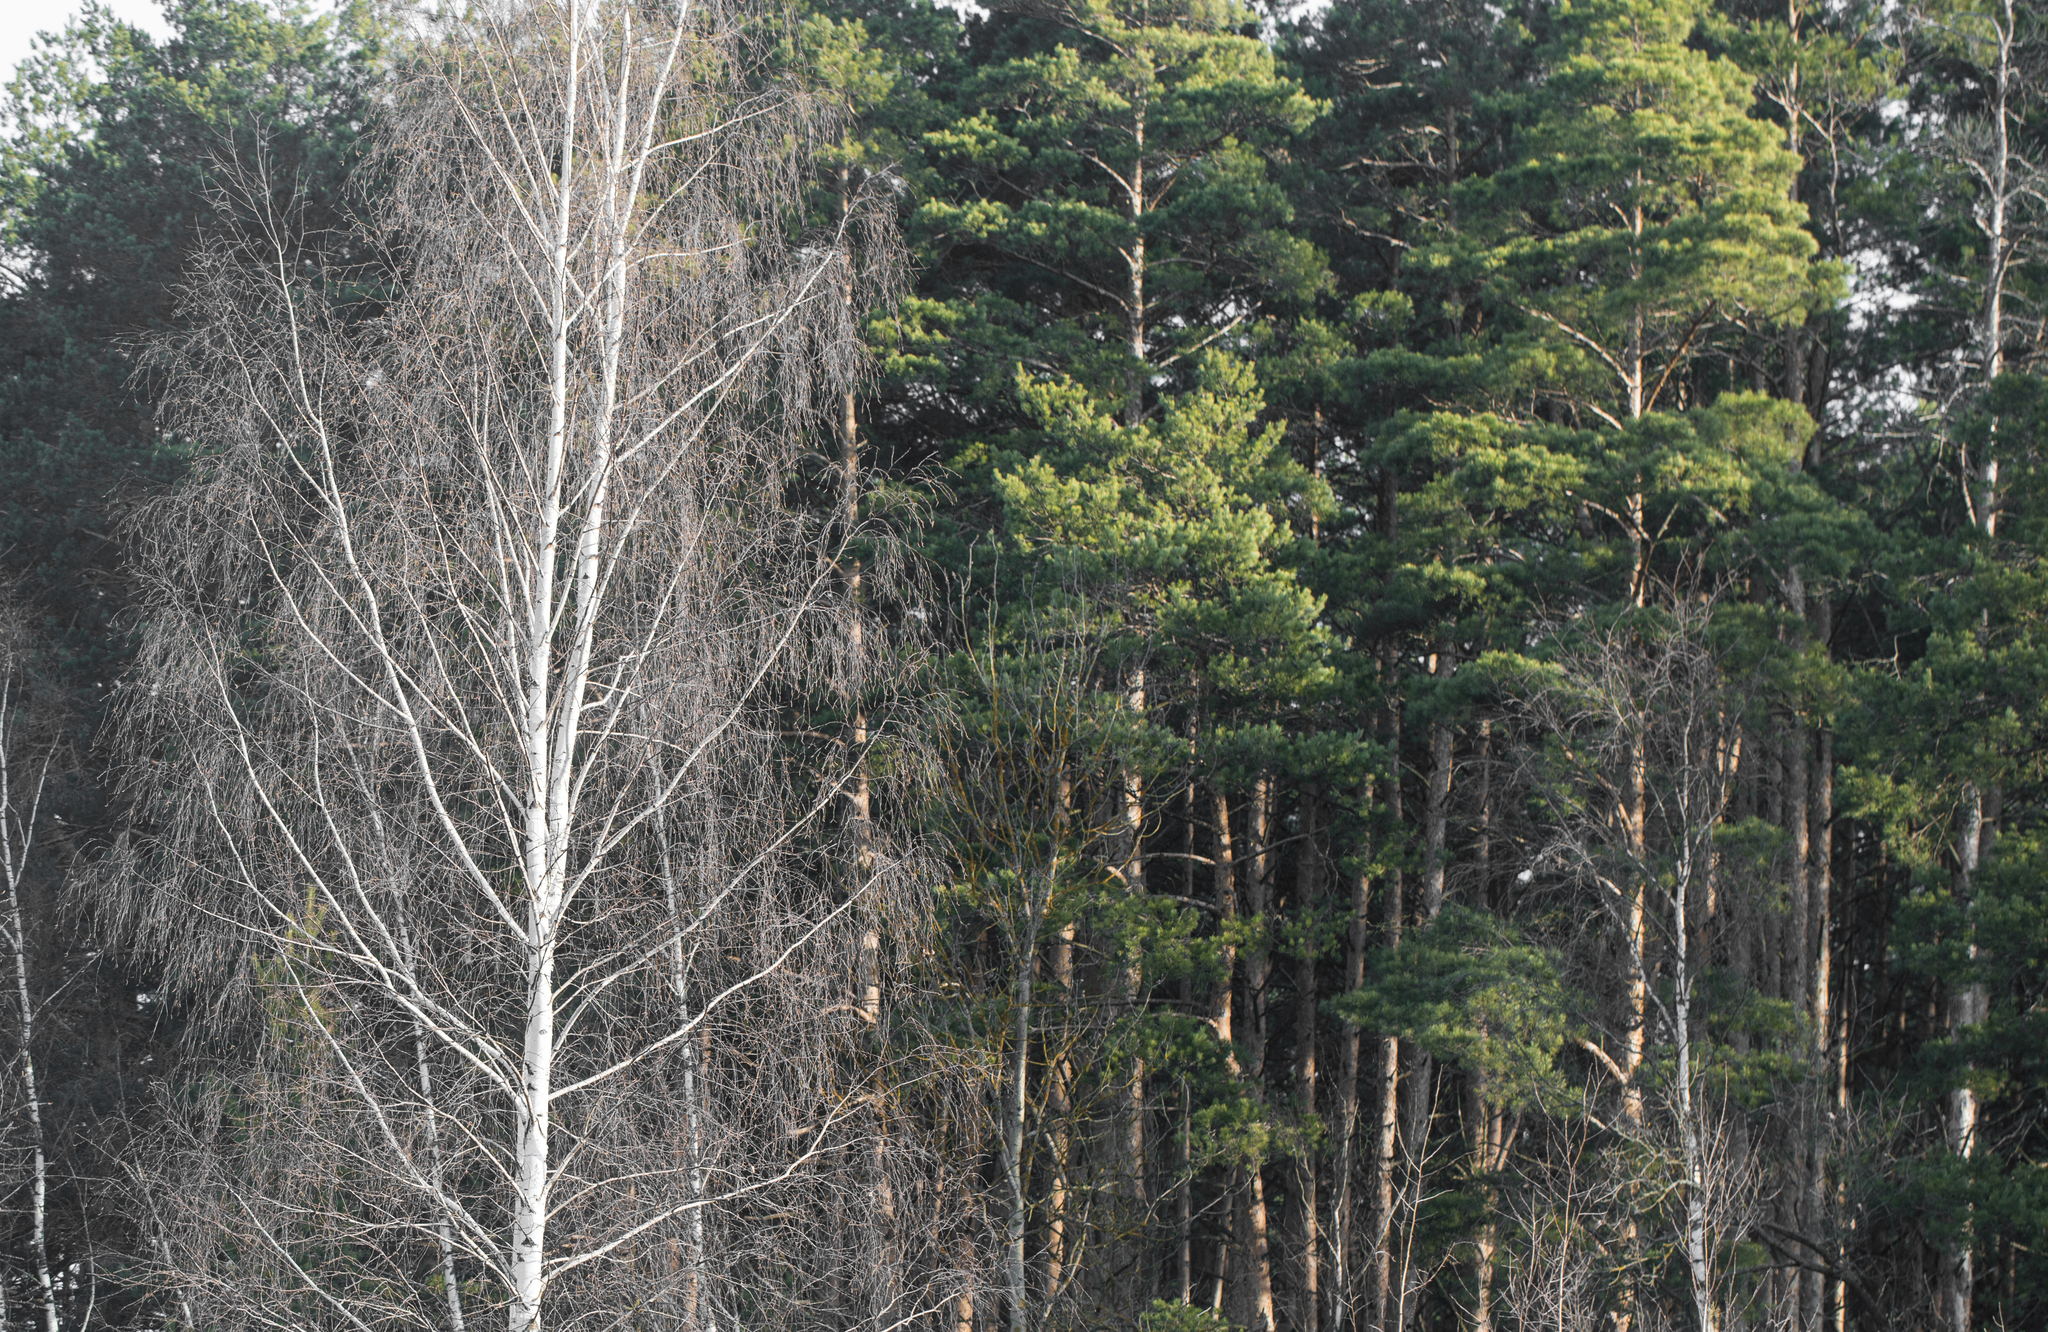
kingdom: Plantae
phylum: Tracheophyta
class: Magnoliopsida
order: Fagales
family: Betulaceae
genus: Betula
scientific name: Betula pendula
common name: Silver birch
